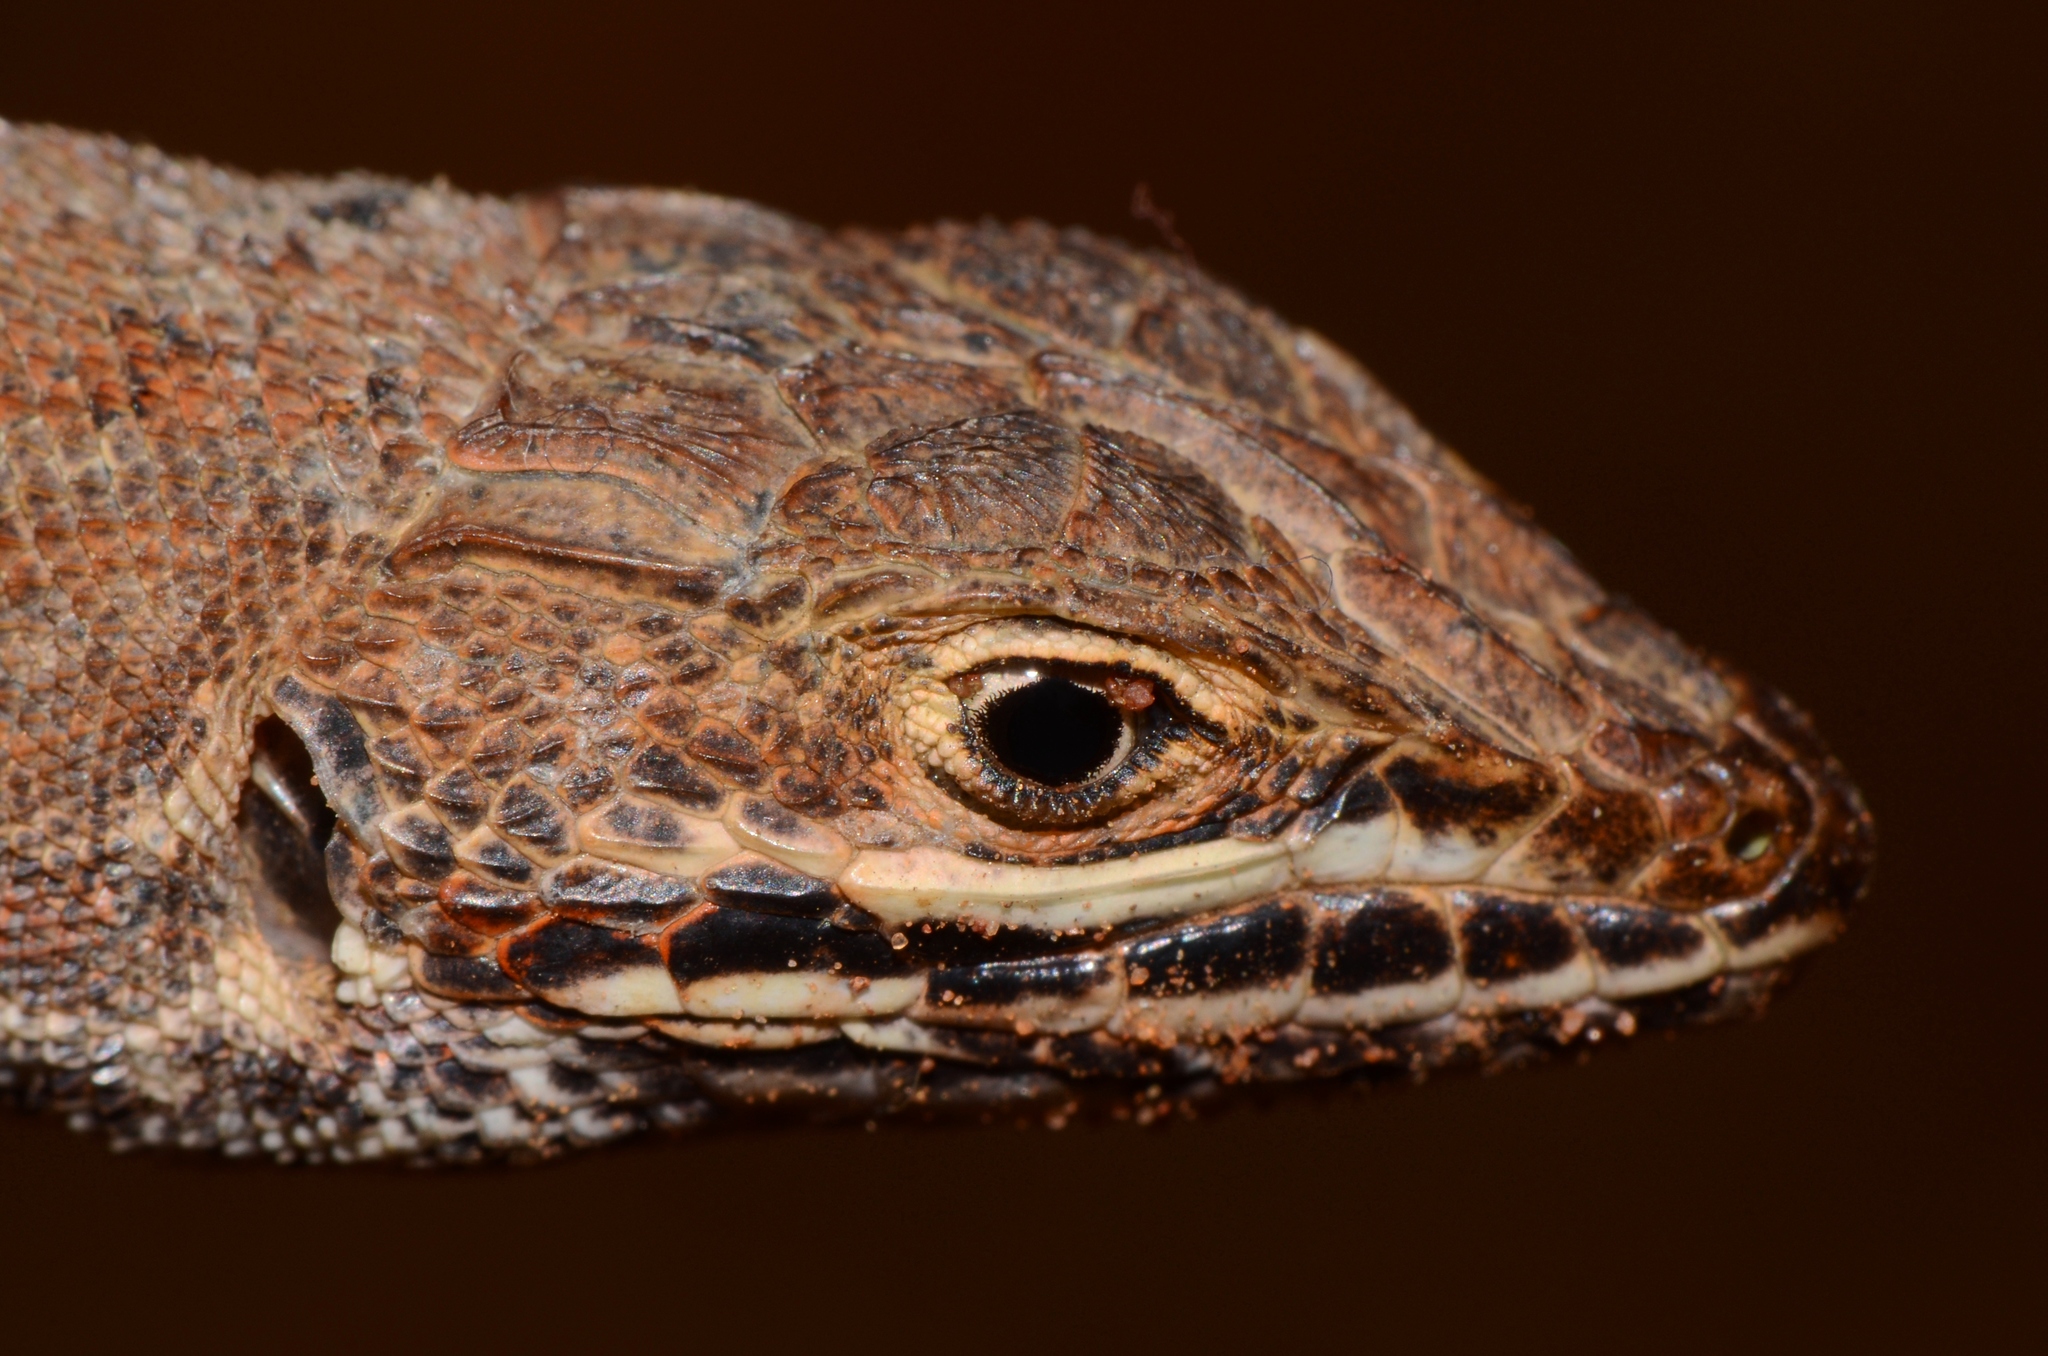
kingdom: Animalia
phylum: Chordata
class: Squamata
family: Lacertidae
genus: Meroles
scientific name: Meroles squamulosus
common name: Common desert lizard
